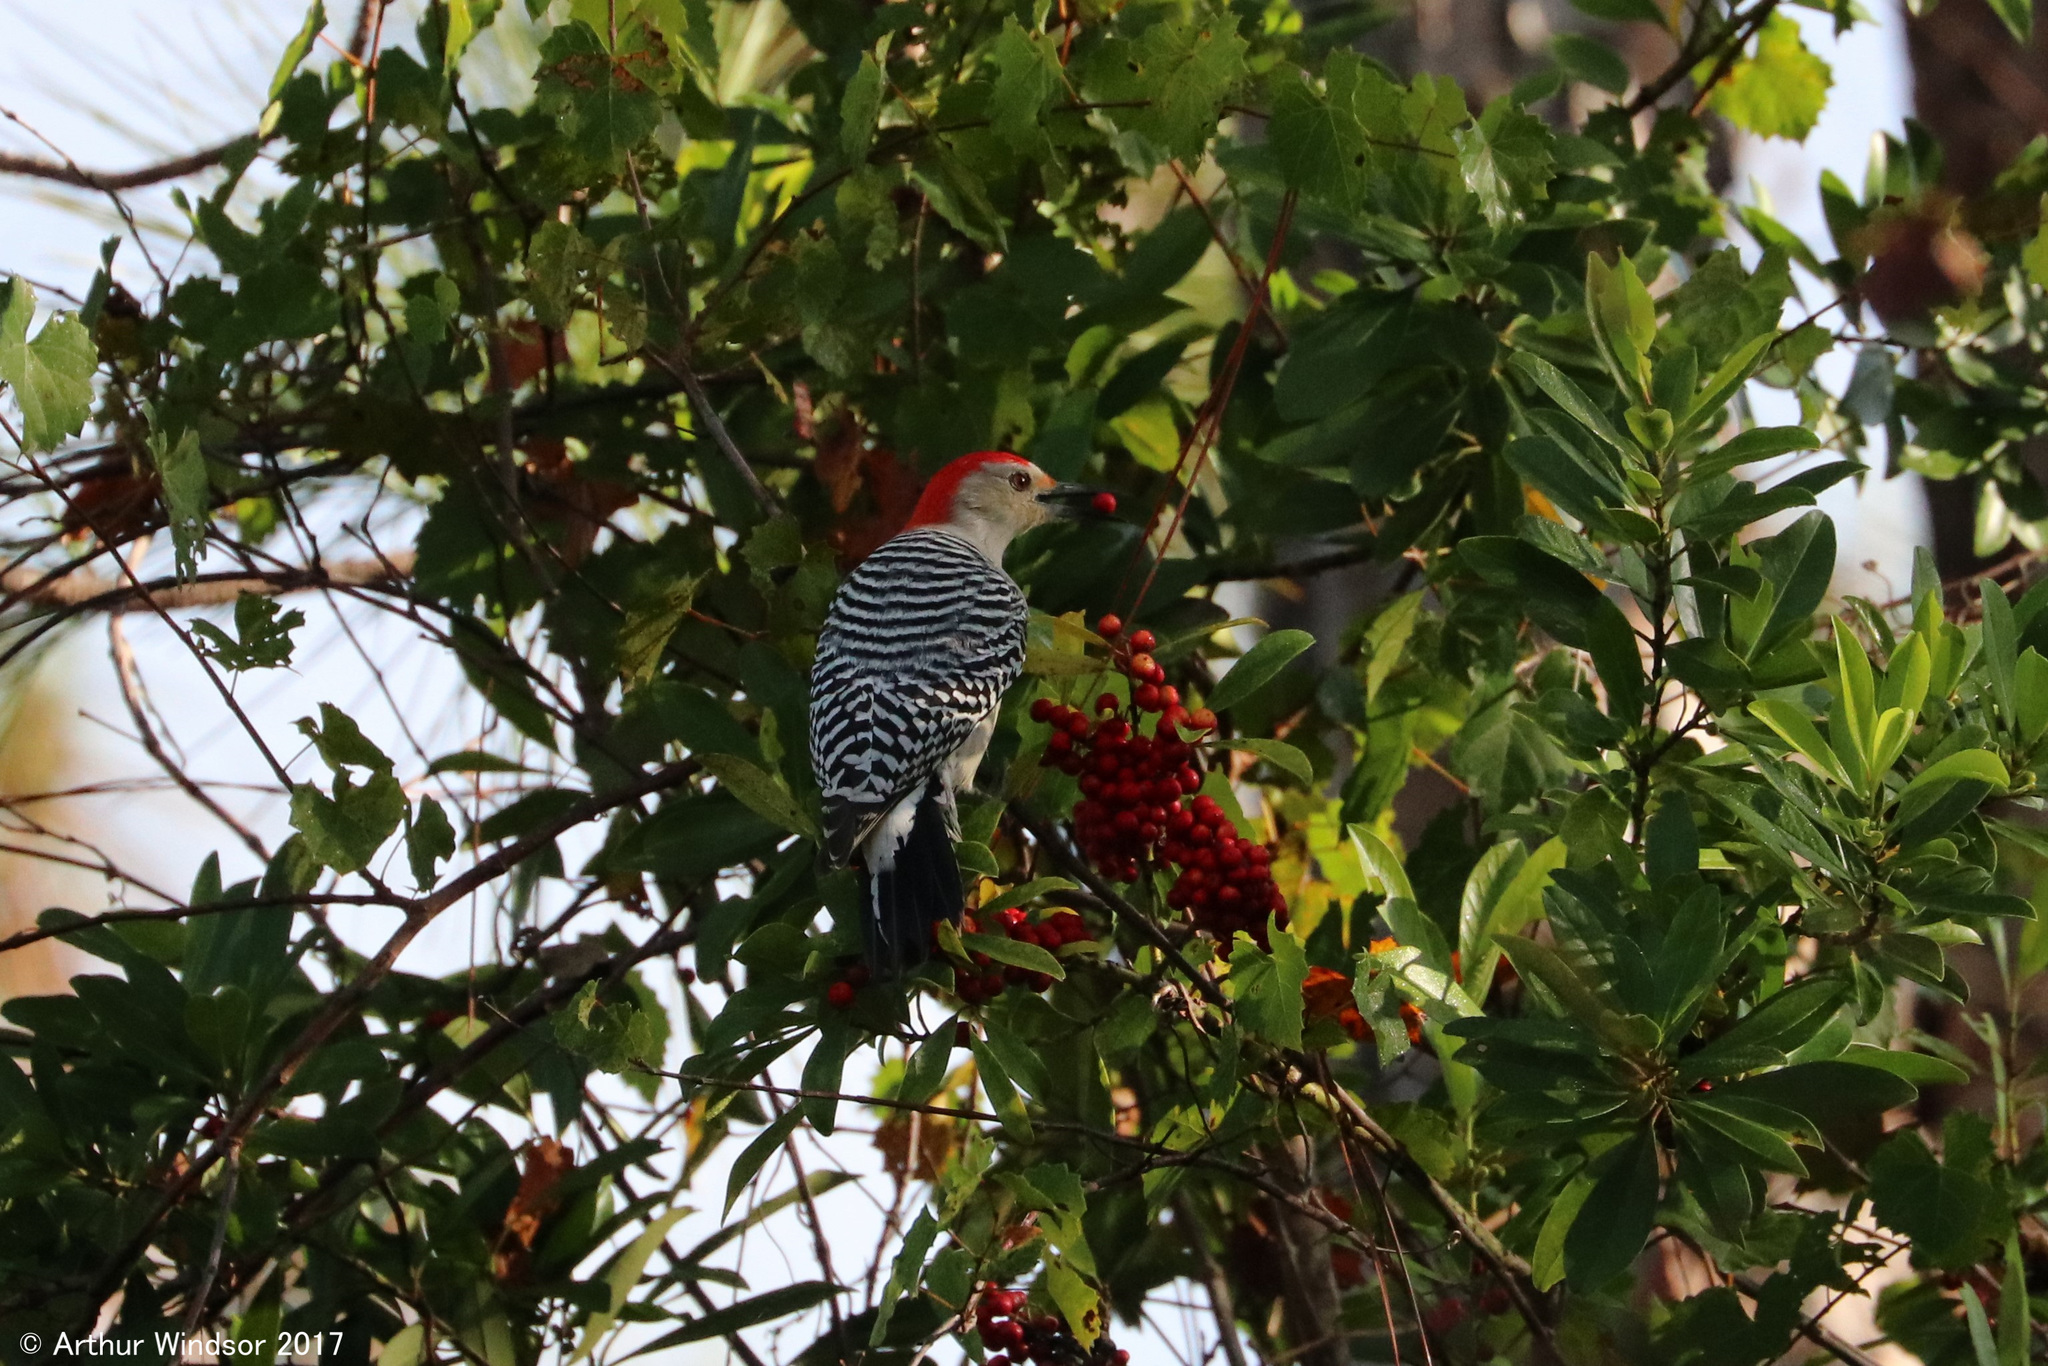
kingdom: Animalia
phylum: Chordata
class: Aves
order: Piciformes
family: Picidae
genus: Melanerpes
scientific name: Melanerpes carolinus
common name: Red-bellied woodpecker
